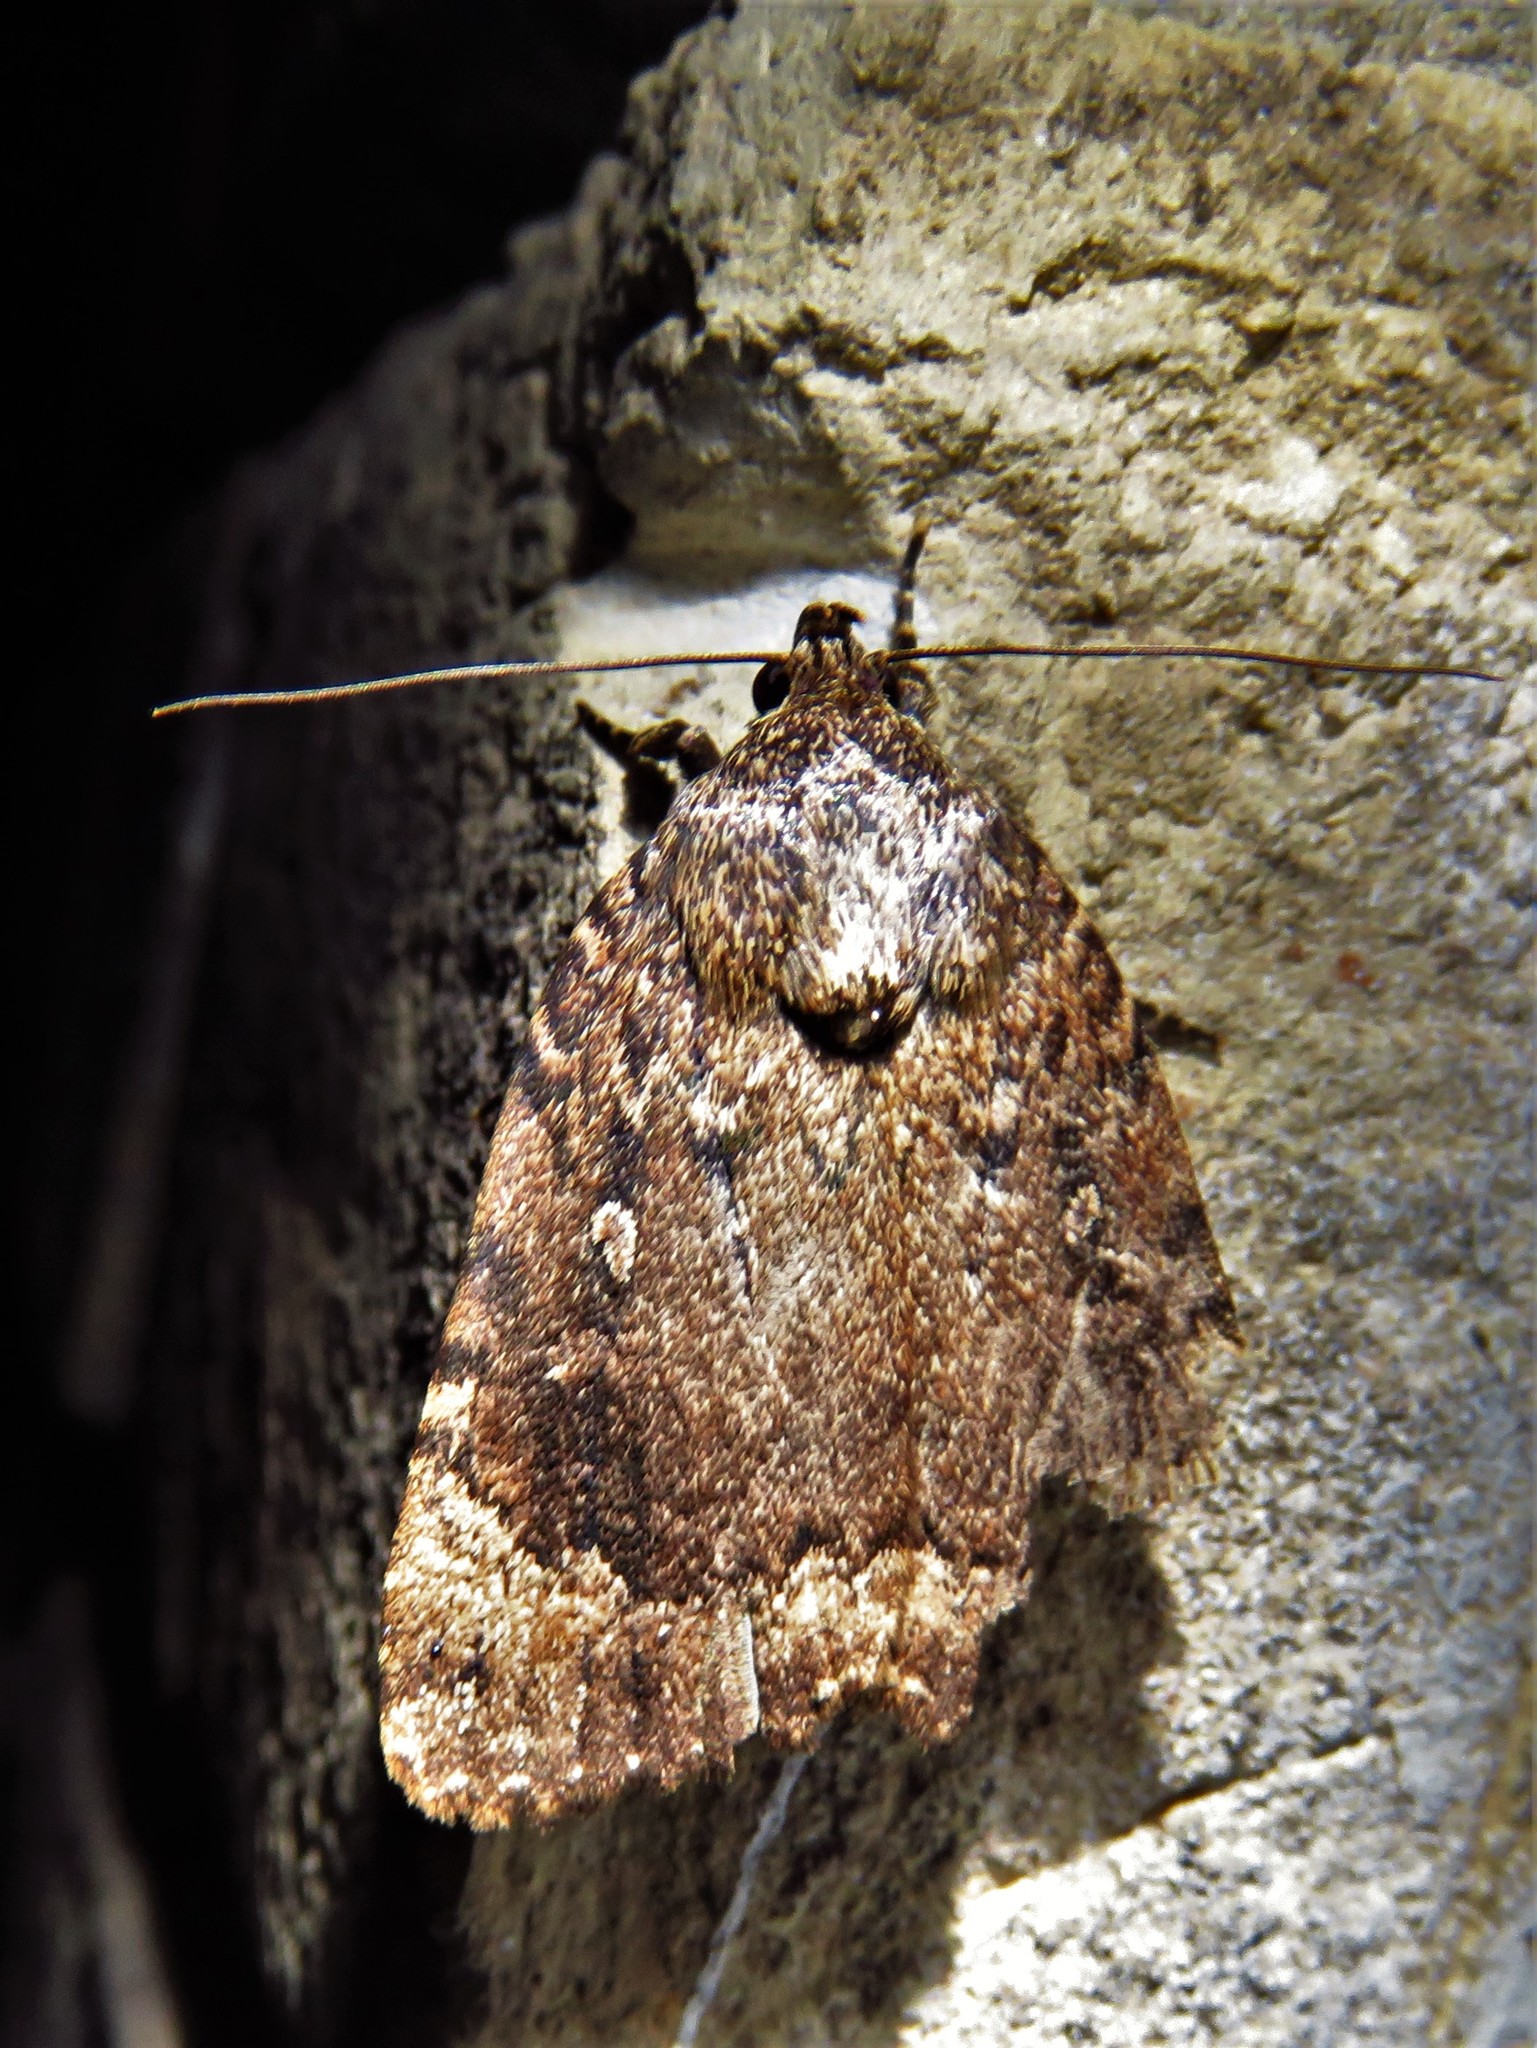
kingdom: Animalia
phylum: Arthropoda
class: Insecta
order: Lepidoptera
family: Noctuidae
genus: Amphipyra
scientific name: Amphipyra pyramidoides
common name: American copper underwing
